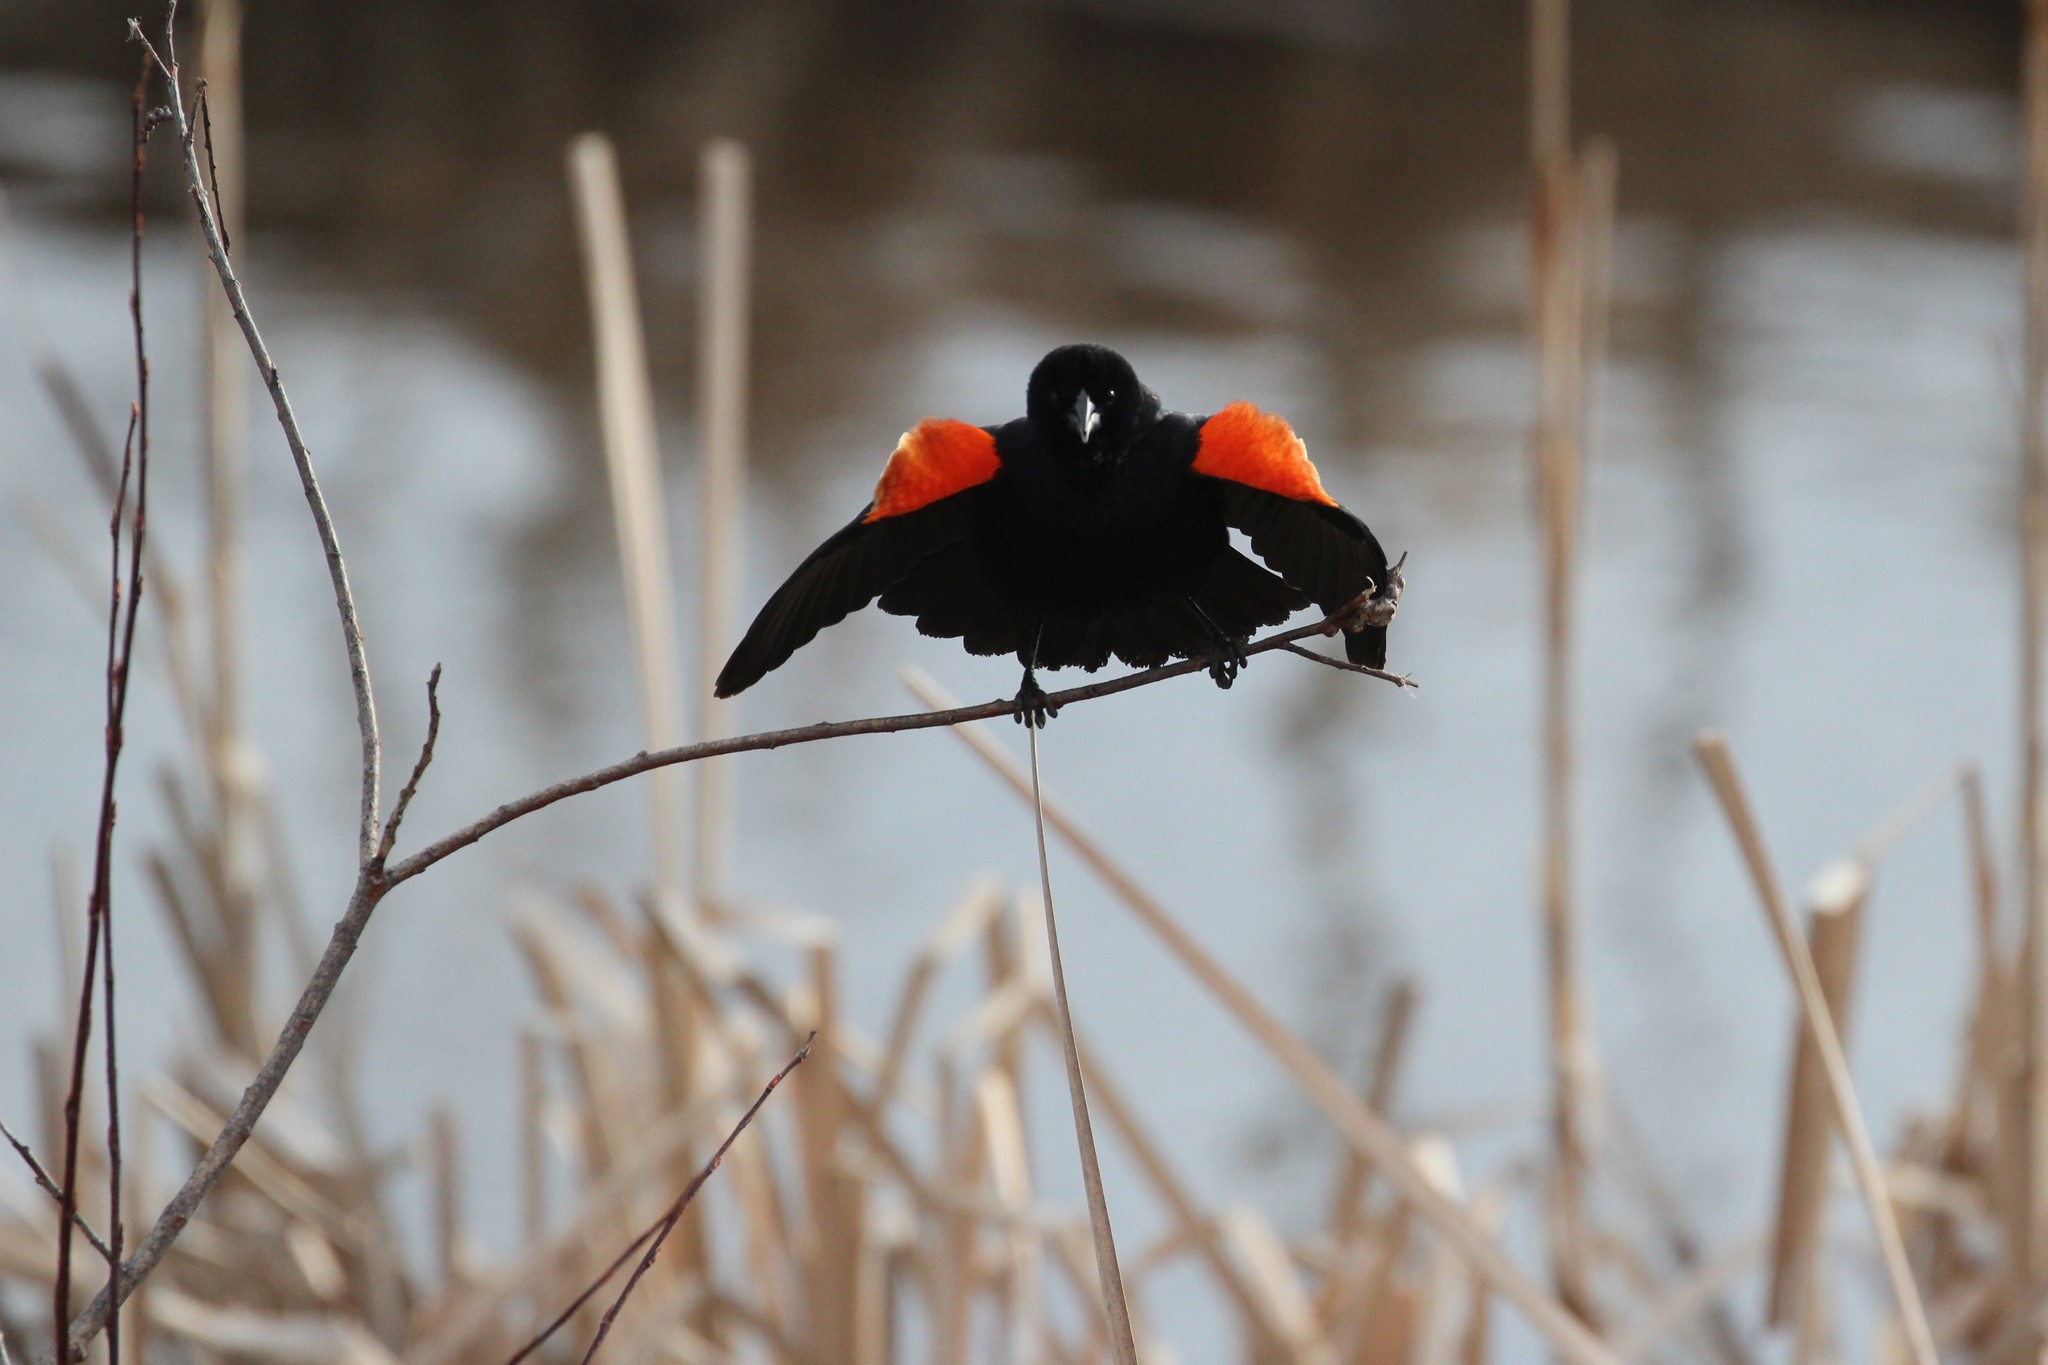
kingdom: Animalia
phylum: Chordata
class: Aves
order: Passeriformes
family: Icteridae
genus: Agelaius
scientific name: Agelaius phoeniceus
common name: Red-winged blackbird
